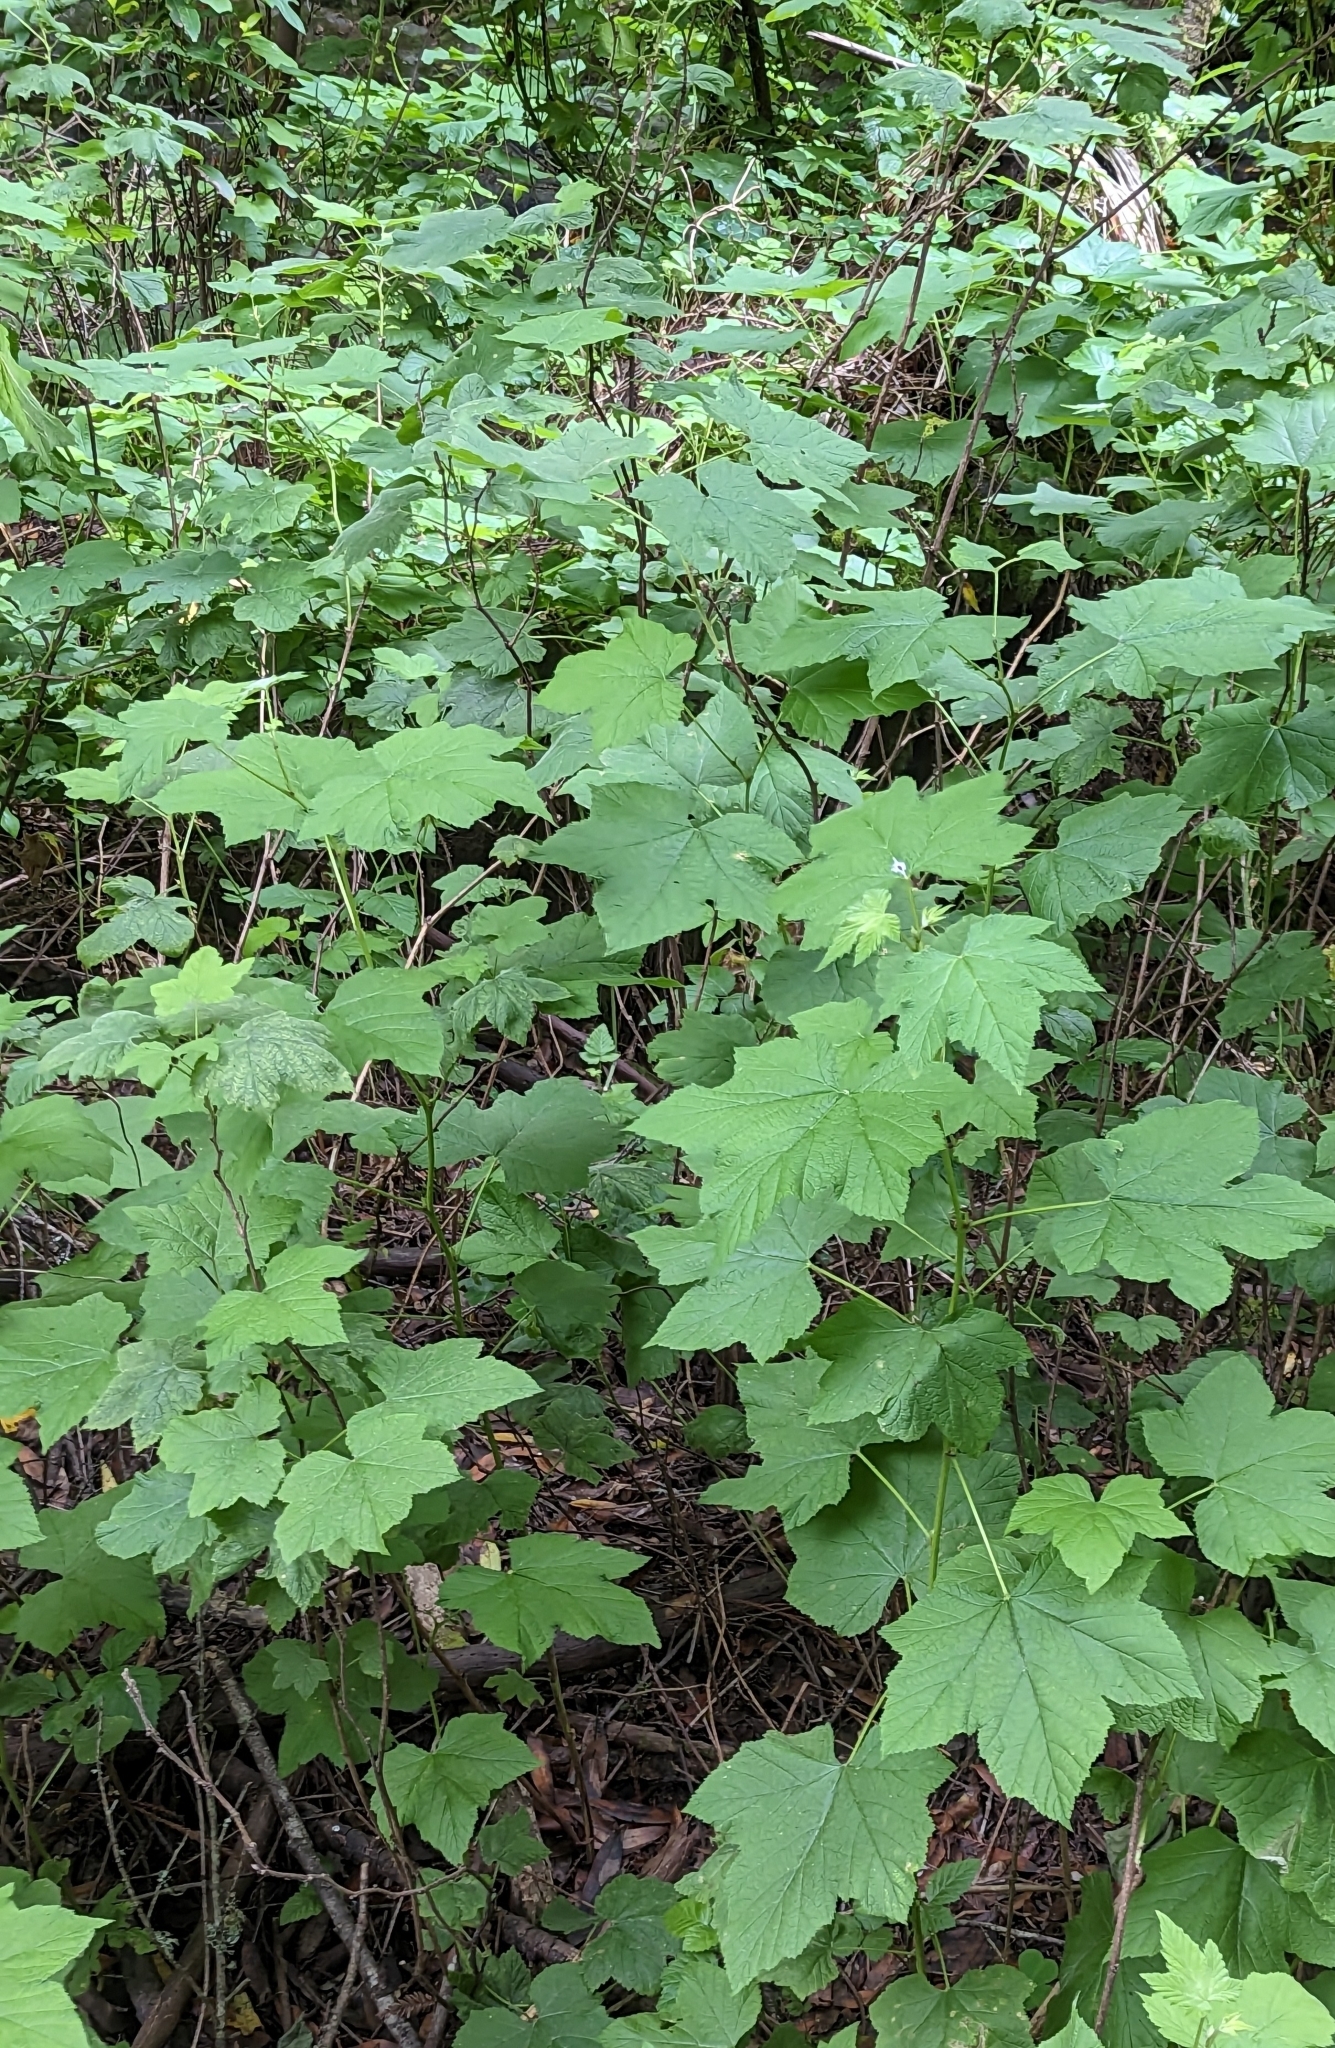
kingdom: Plantae
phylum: Tracheophyta
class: Magnoliopsida
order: Rosales
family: Rosaceae
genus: Rubus
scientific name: Rubus parviflorus
